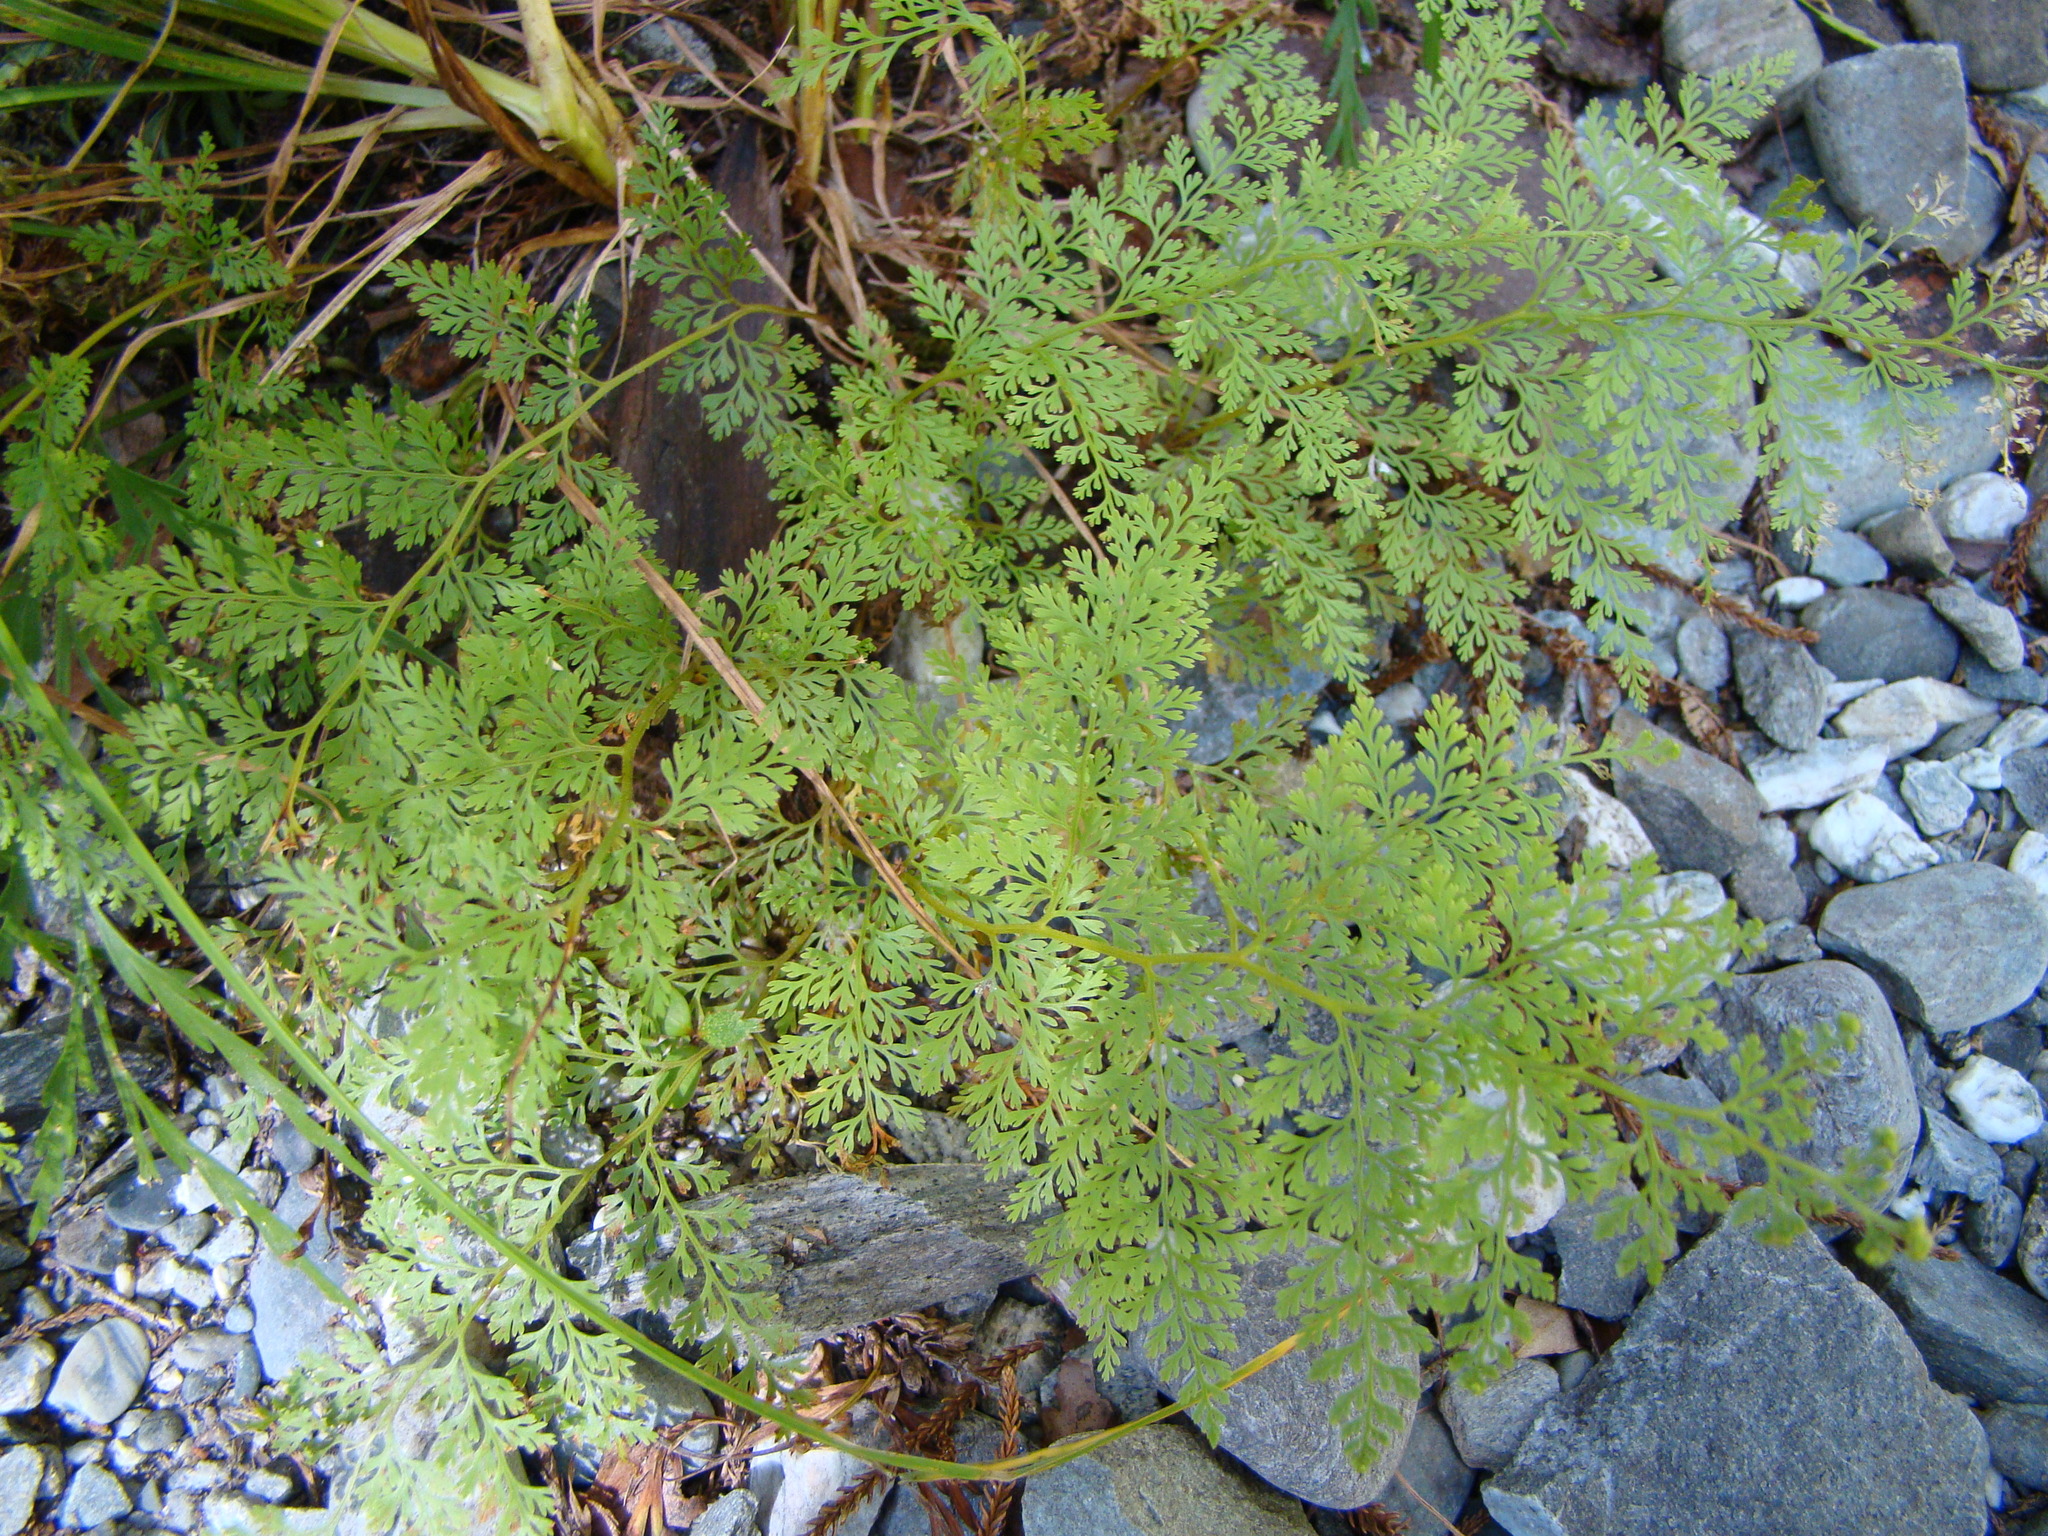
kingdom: Plantae
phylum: Tracheophyta
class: Polypodiopsida
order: Polypodiales
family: Dennstaedtiaceae
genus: Paesia
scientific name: Paesia scaberula
